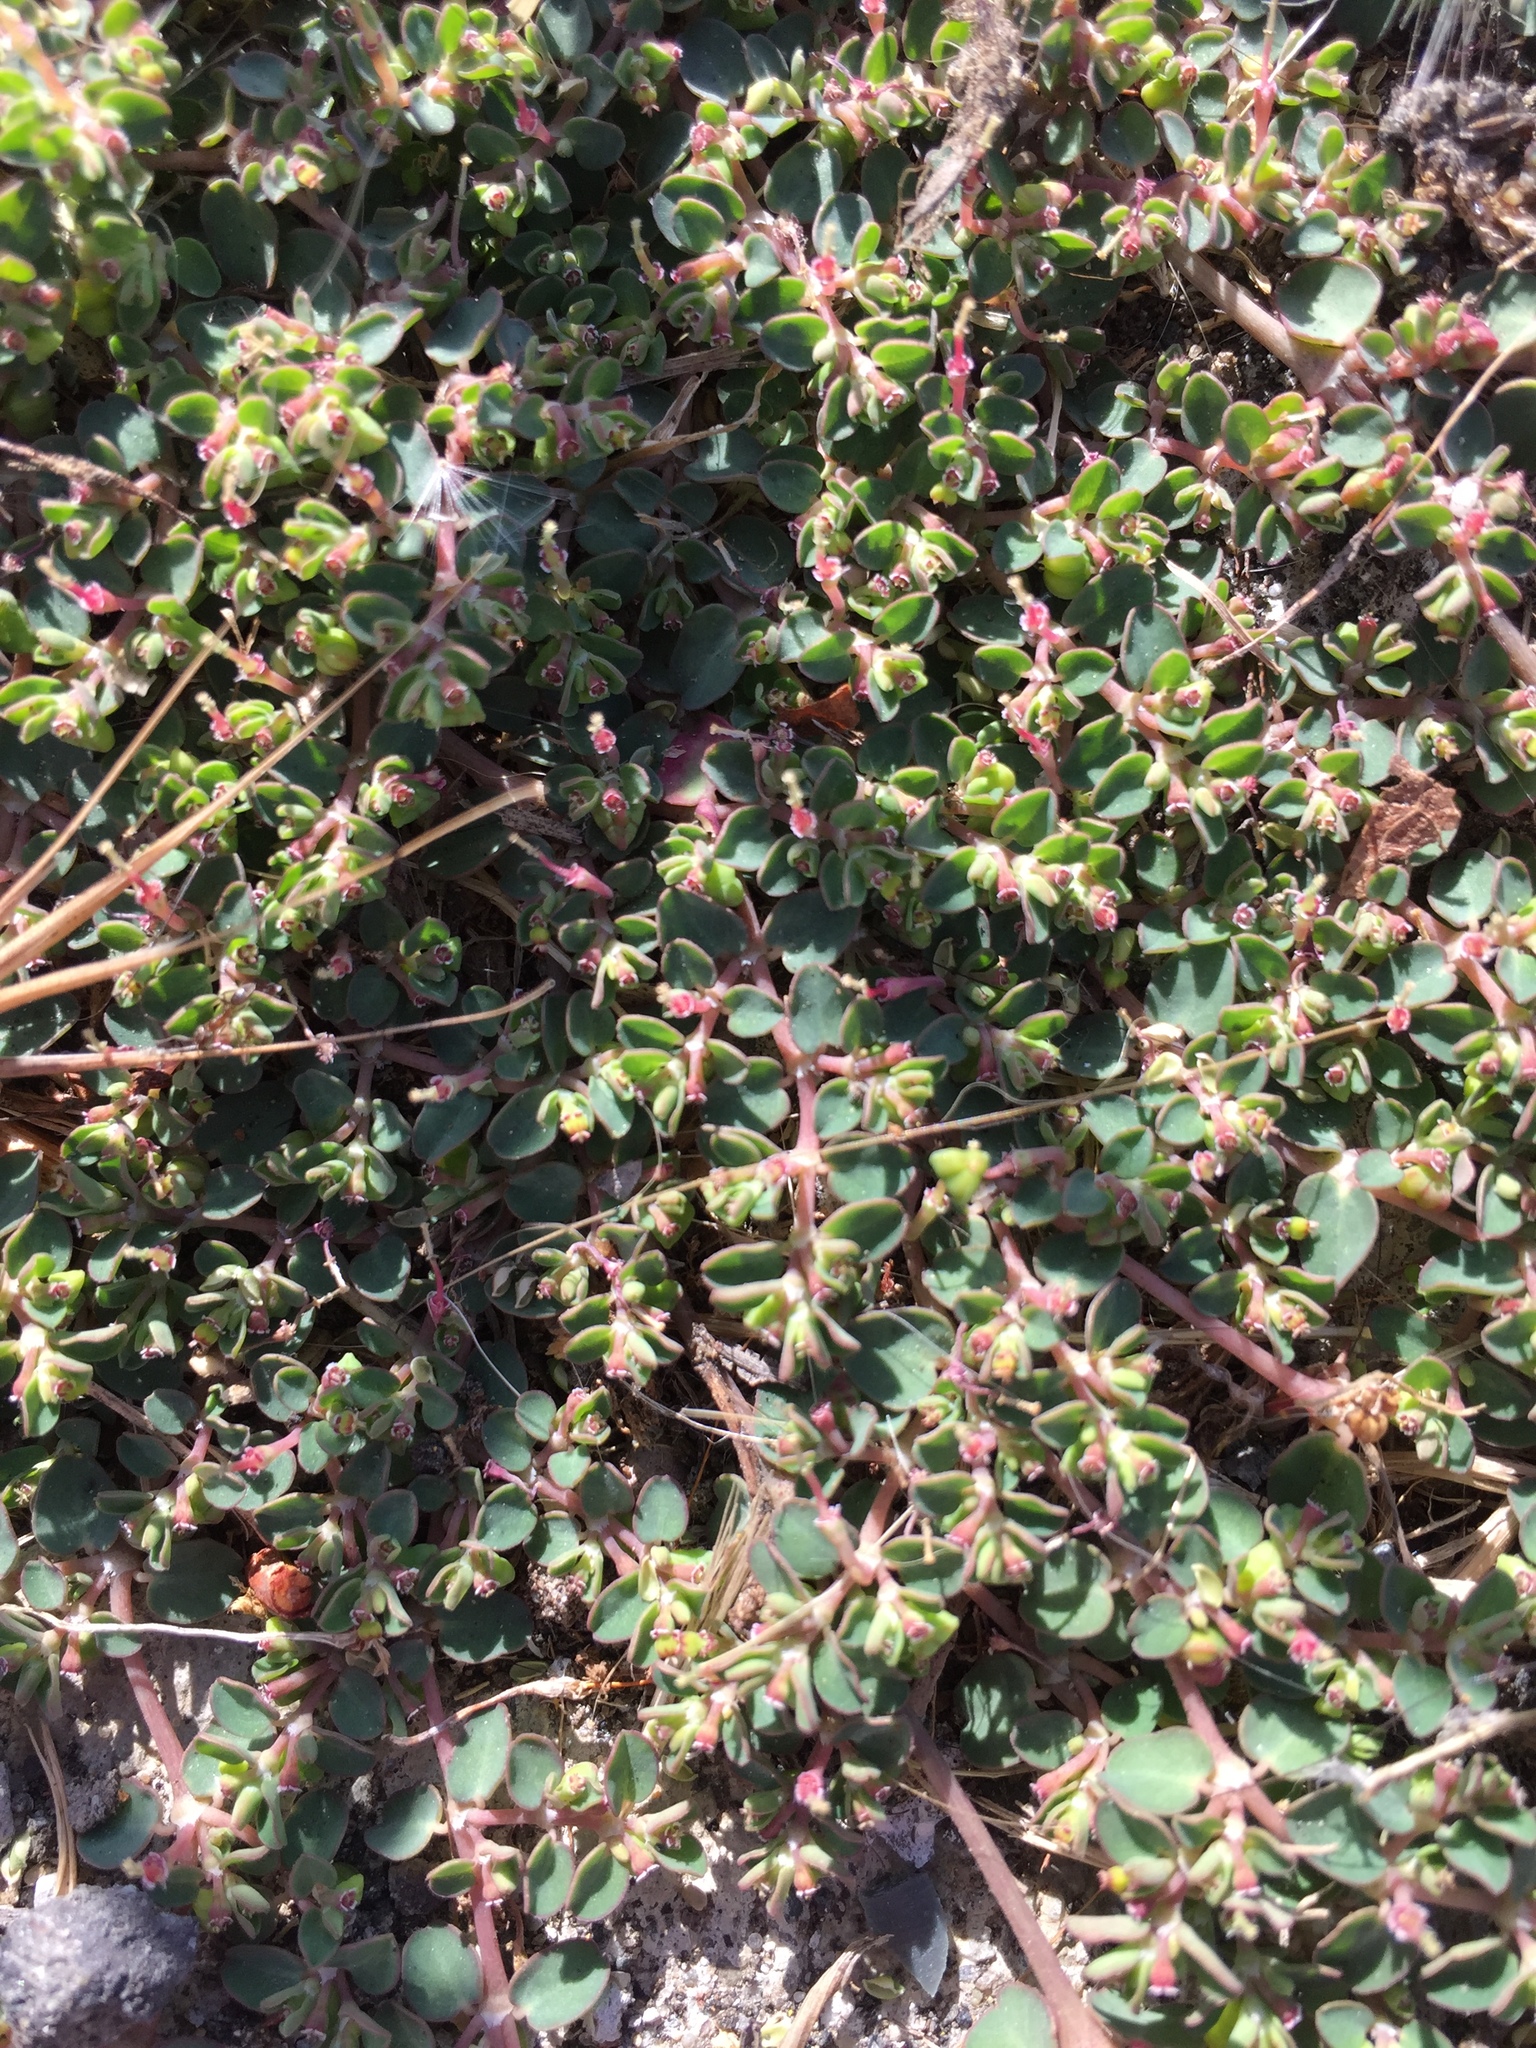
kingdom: Plantae
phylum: Tracheophyta
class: Magnoliopsida
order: Malpighiales
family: Euphorbiaceae
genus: Euphorbia
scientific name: Euphorbia serpens
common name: Matted sandmat
